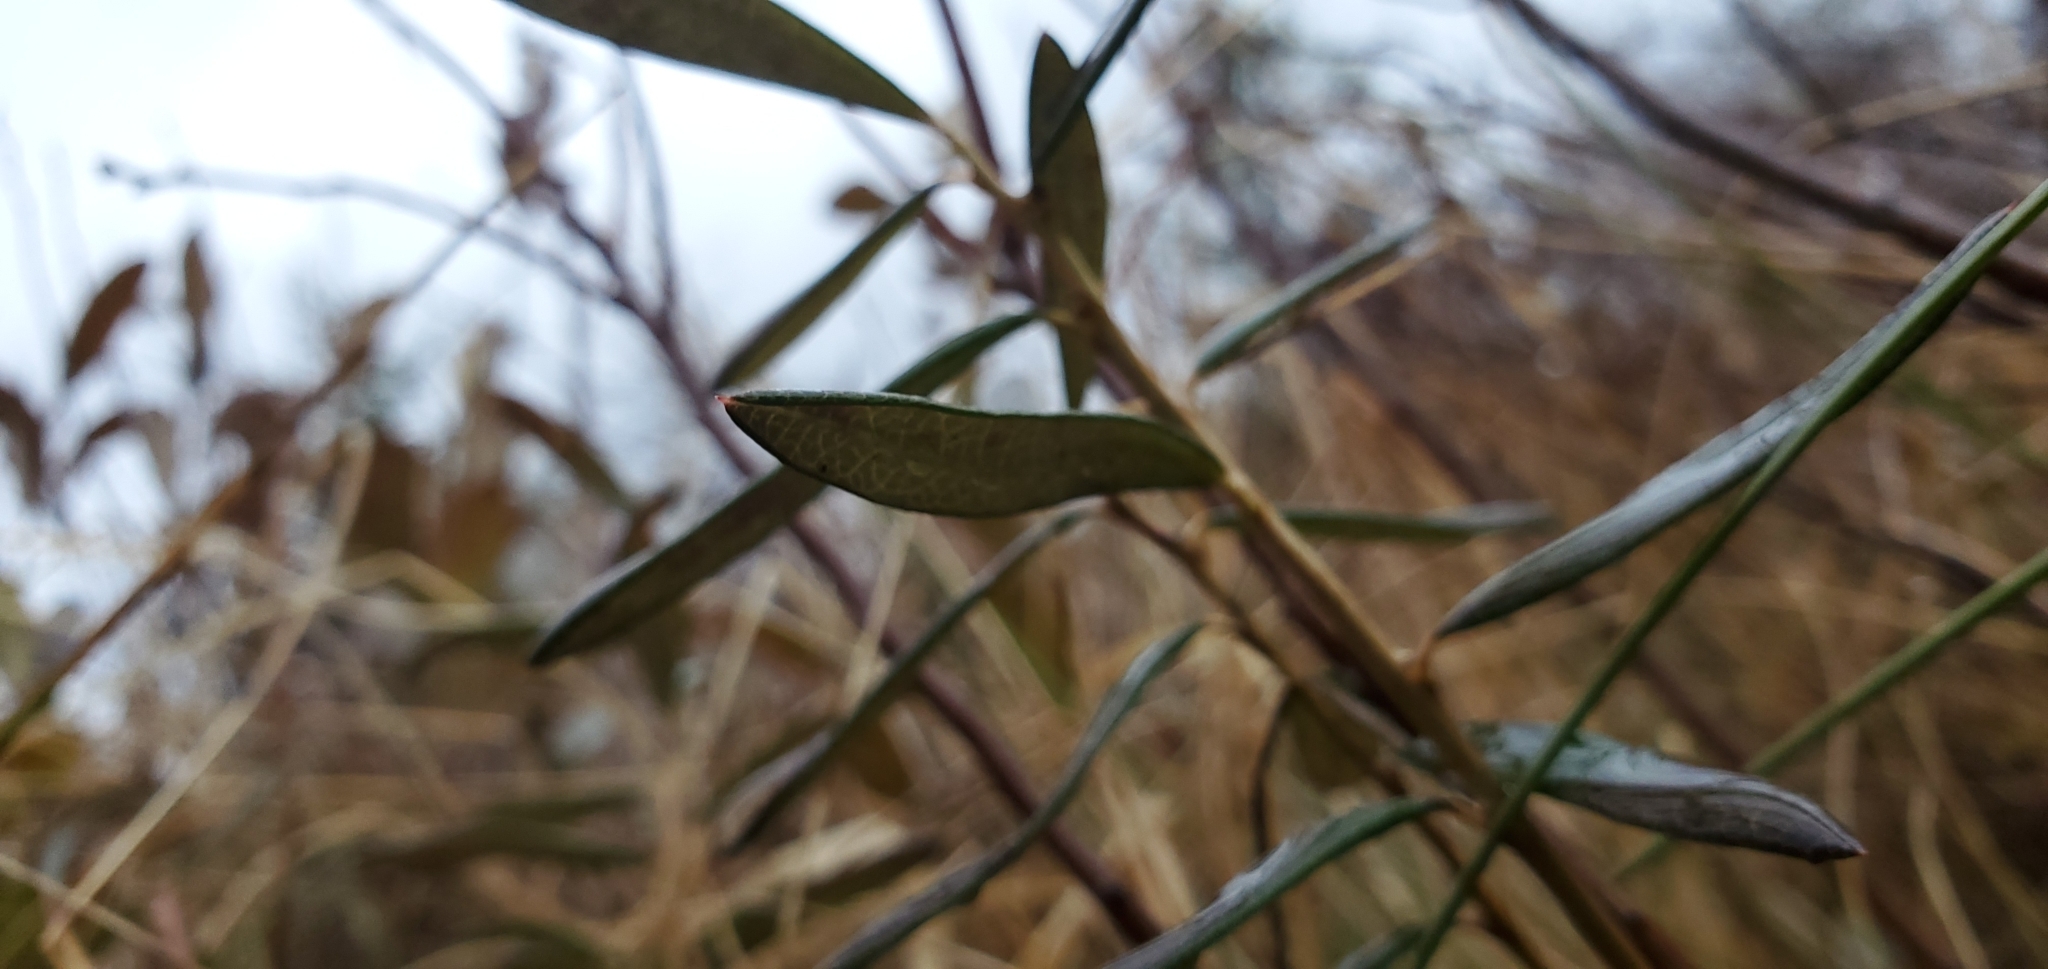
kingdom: Plantae
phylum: Tracheophyta
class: Magnoliopsida
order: Ericales
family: Ericaceae
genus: Andromeda
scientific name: Andromeda polifolia
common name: Bog-rosemary
